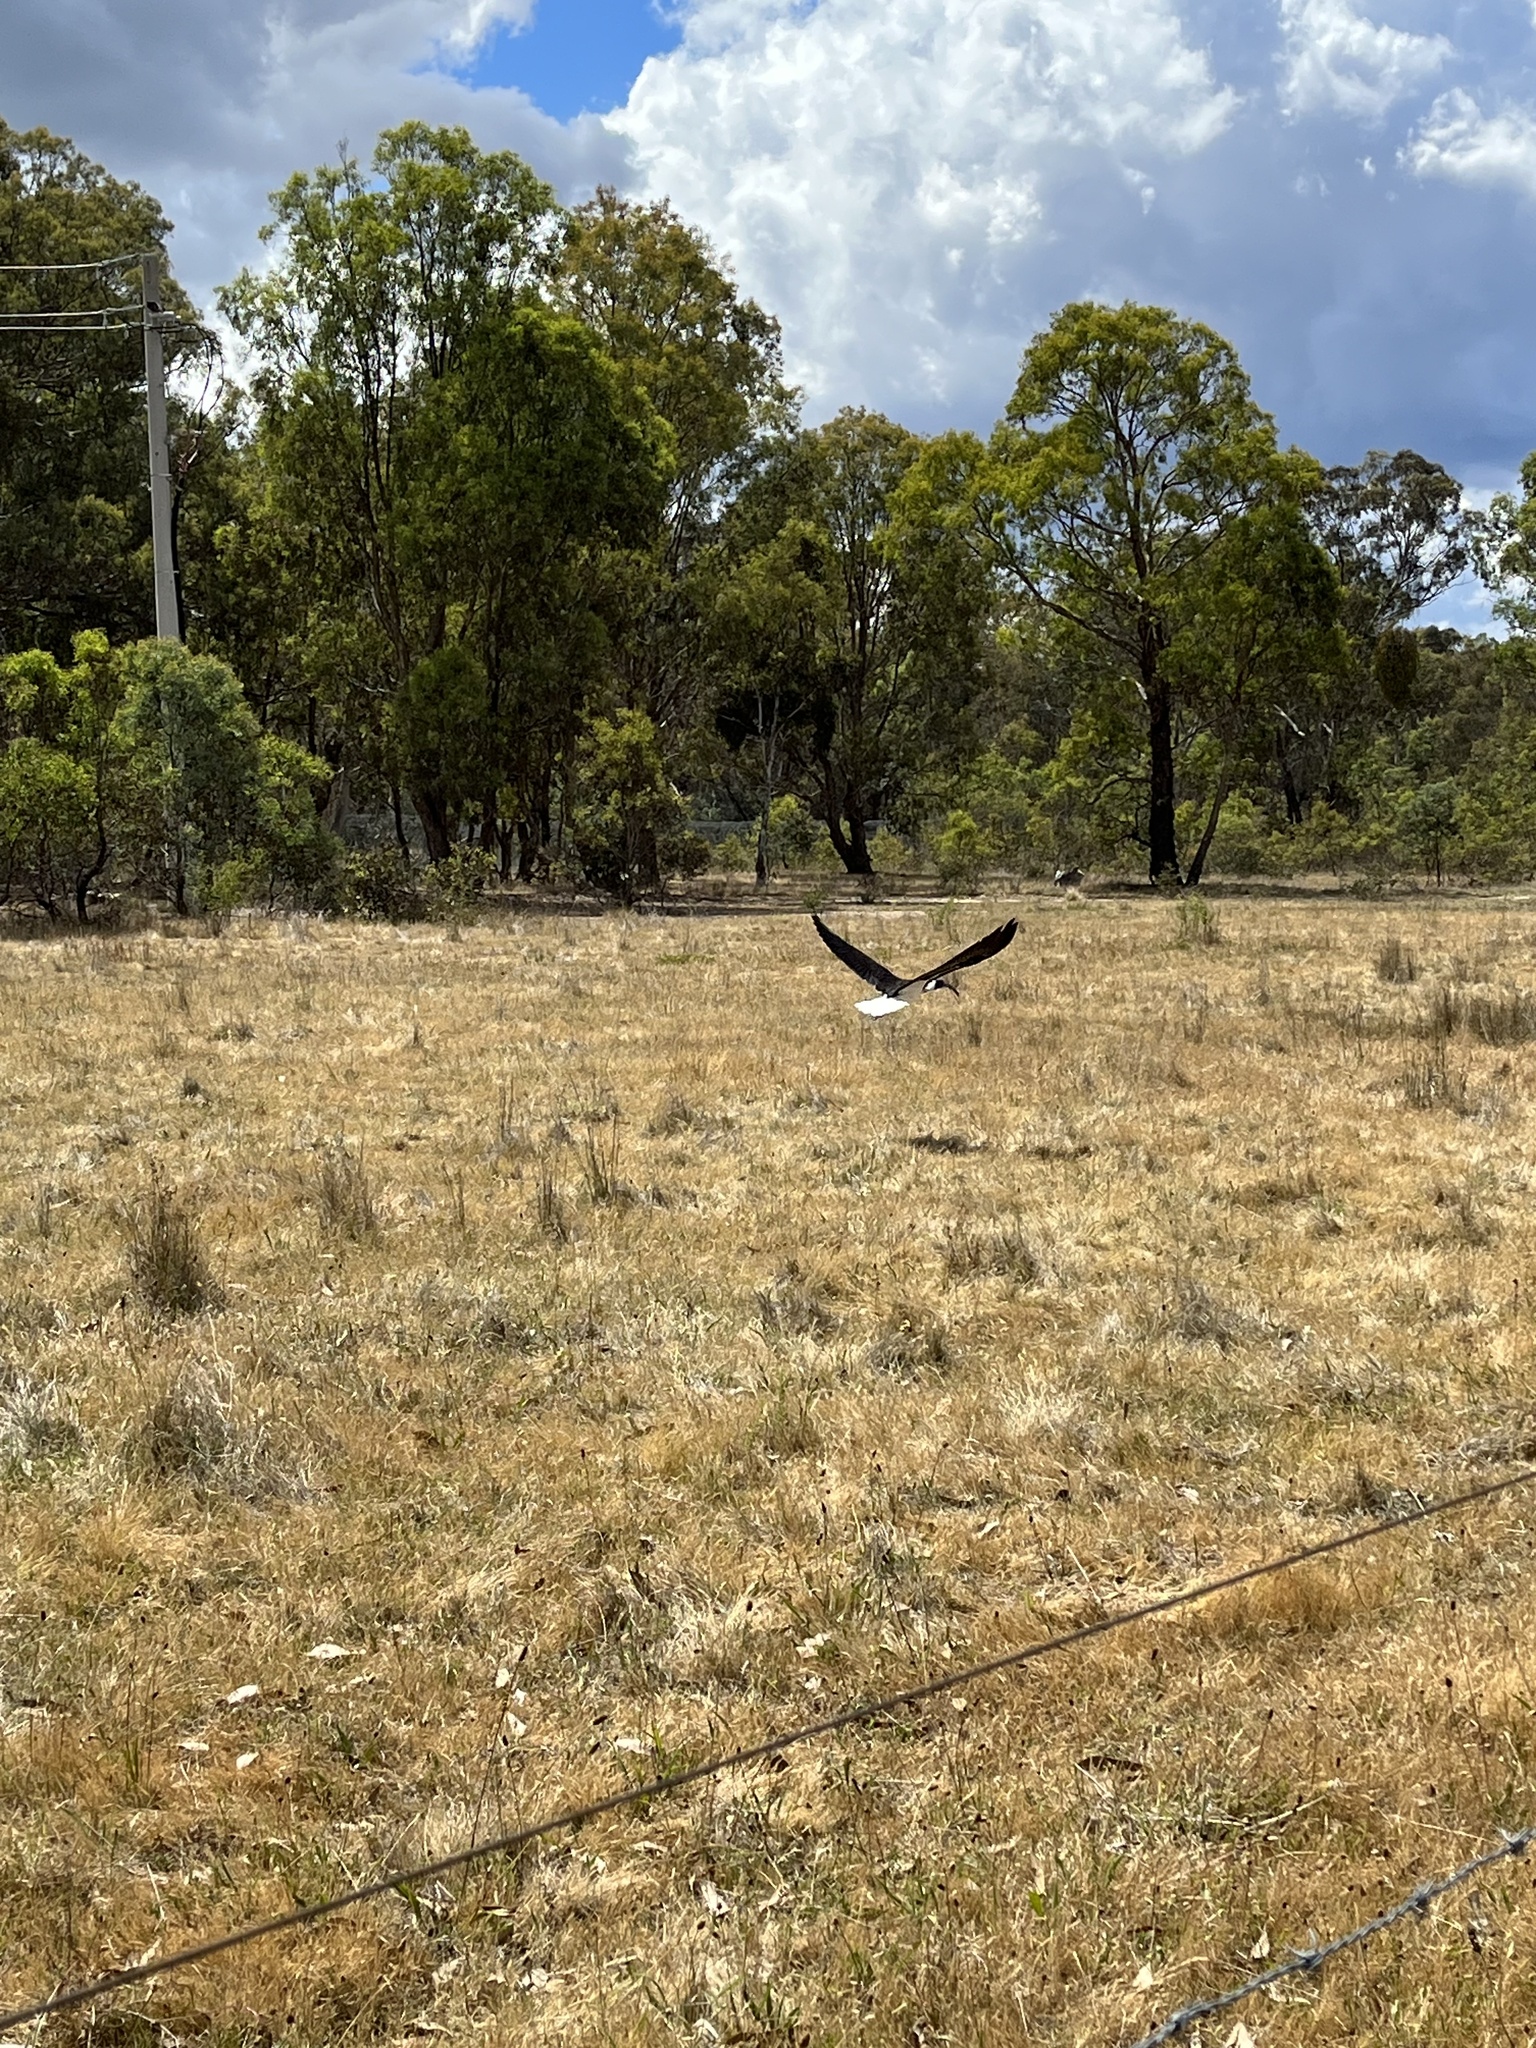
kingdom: Animalia
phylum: Chordata
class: Aves
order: Pelecaniformes
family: Threskiornithidae
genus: Threskiornis
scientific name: Threskiornis spinicollis
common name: Straw-necked ibis
